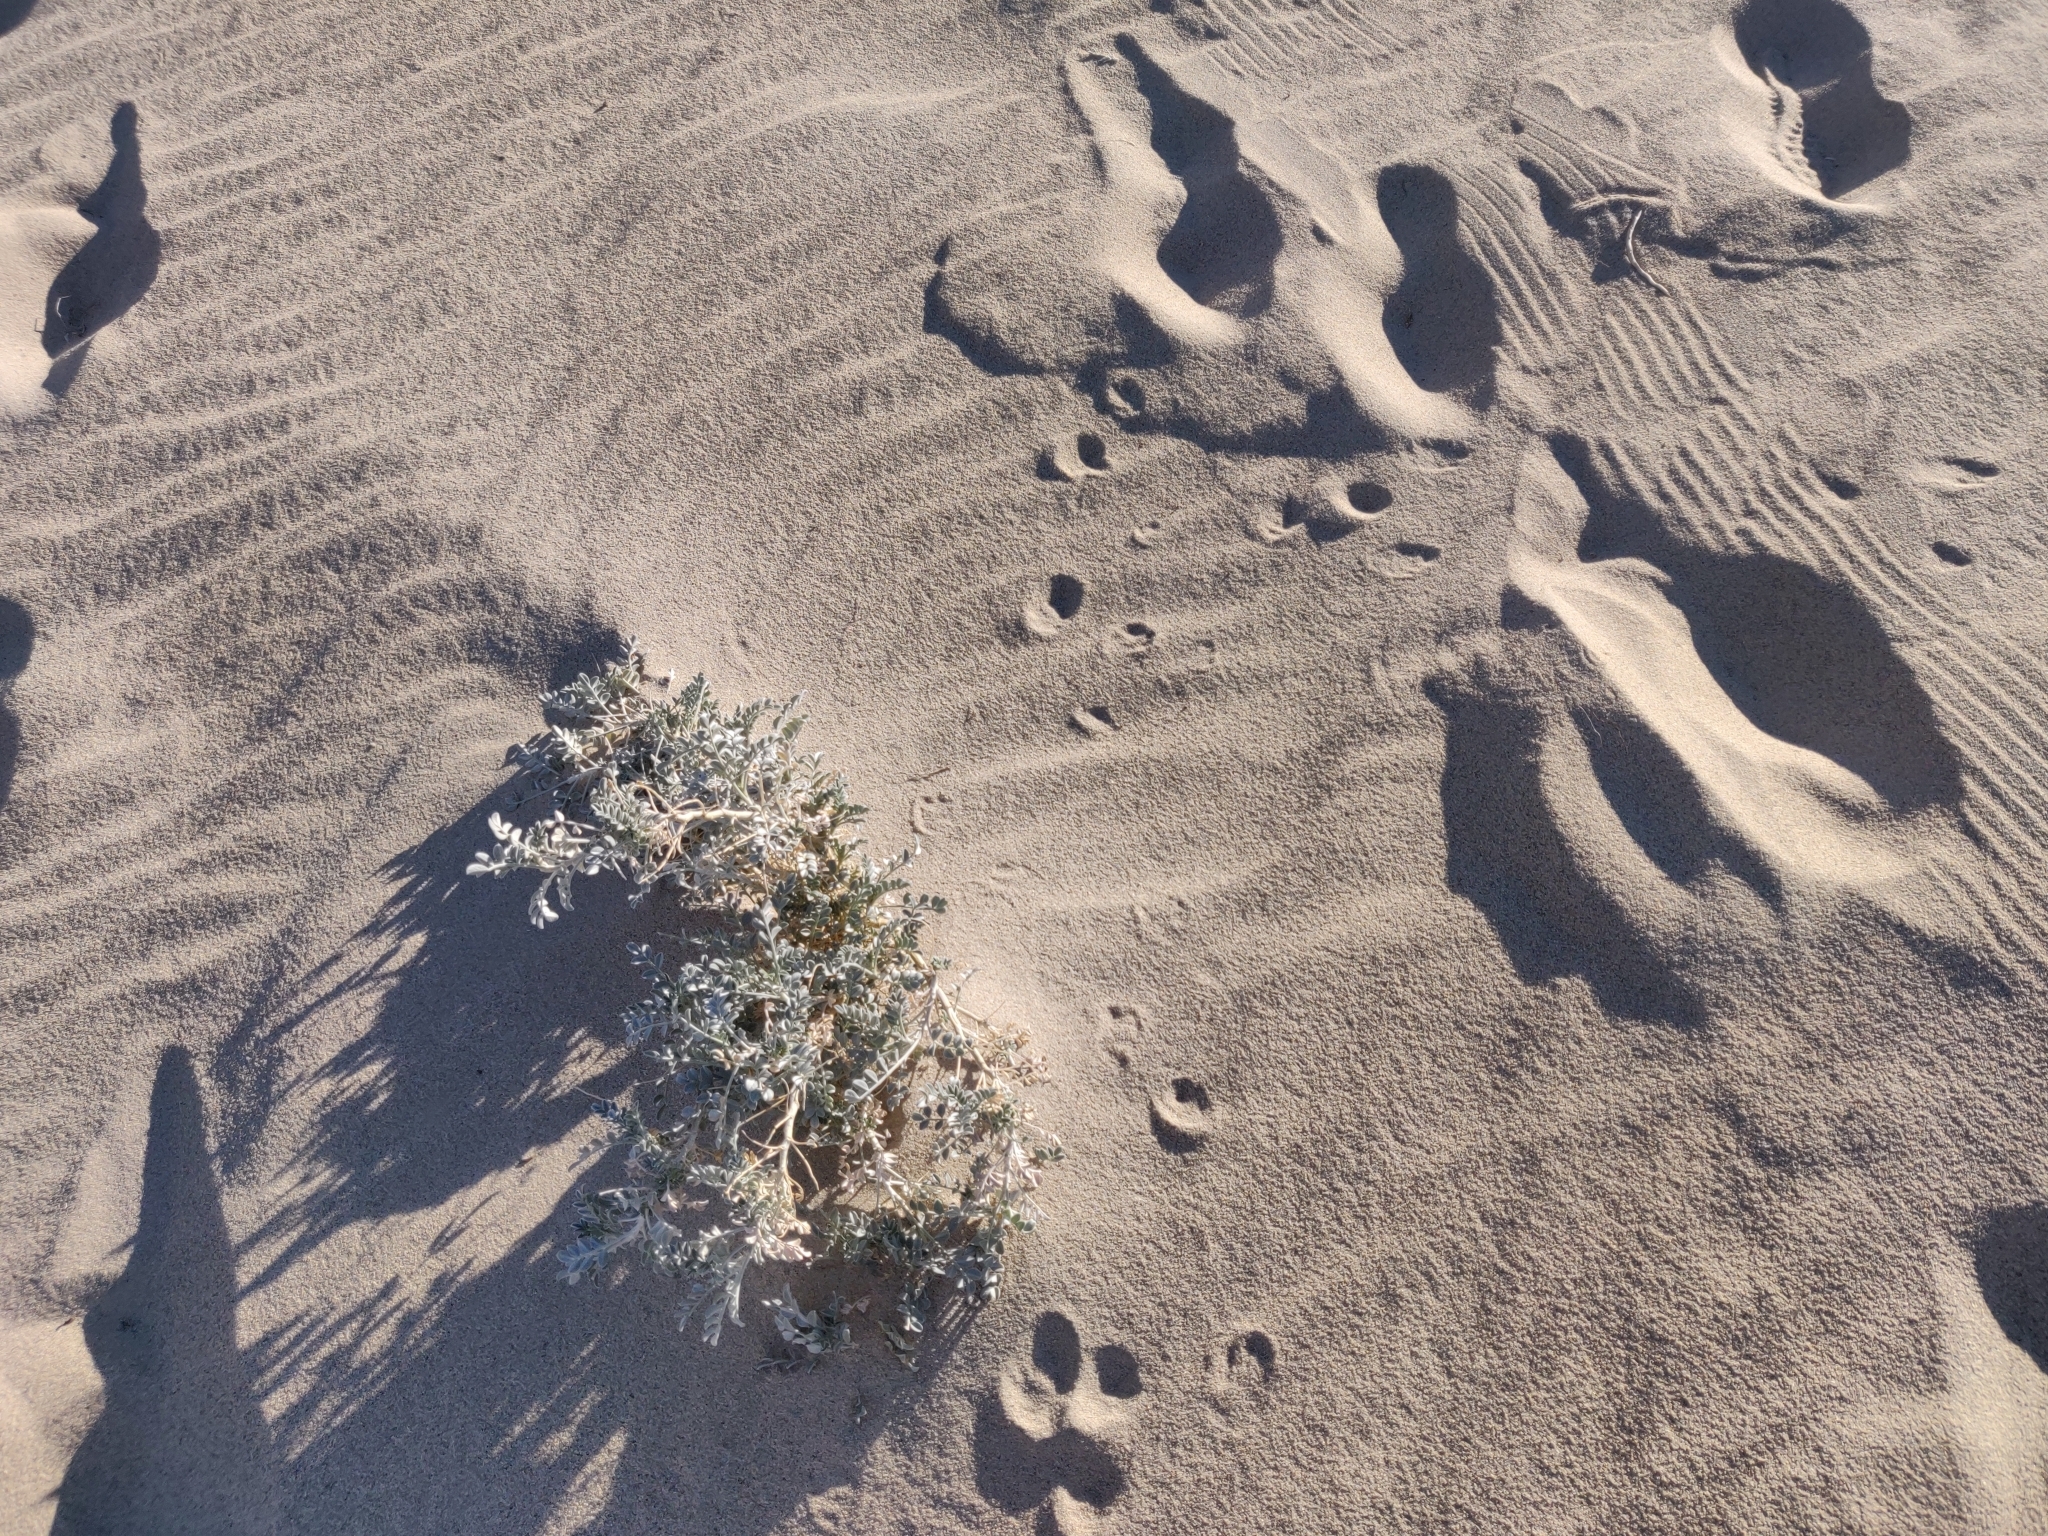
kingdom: Plantae
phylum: Tracheophyta
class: Magnoliopsida
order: Fabales
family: Fabaceae
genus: Astragalus
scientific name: Astragalus lentiginosus
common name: Freckled milkvetch
